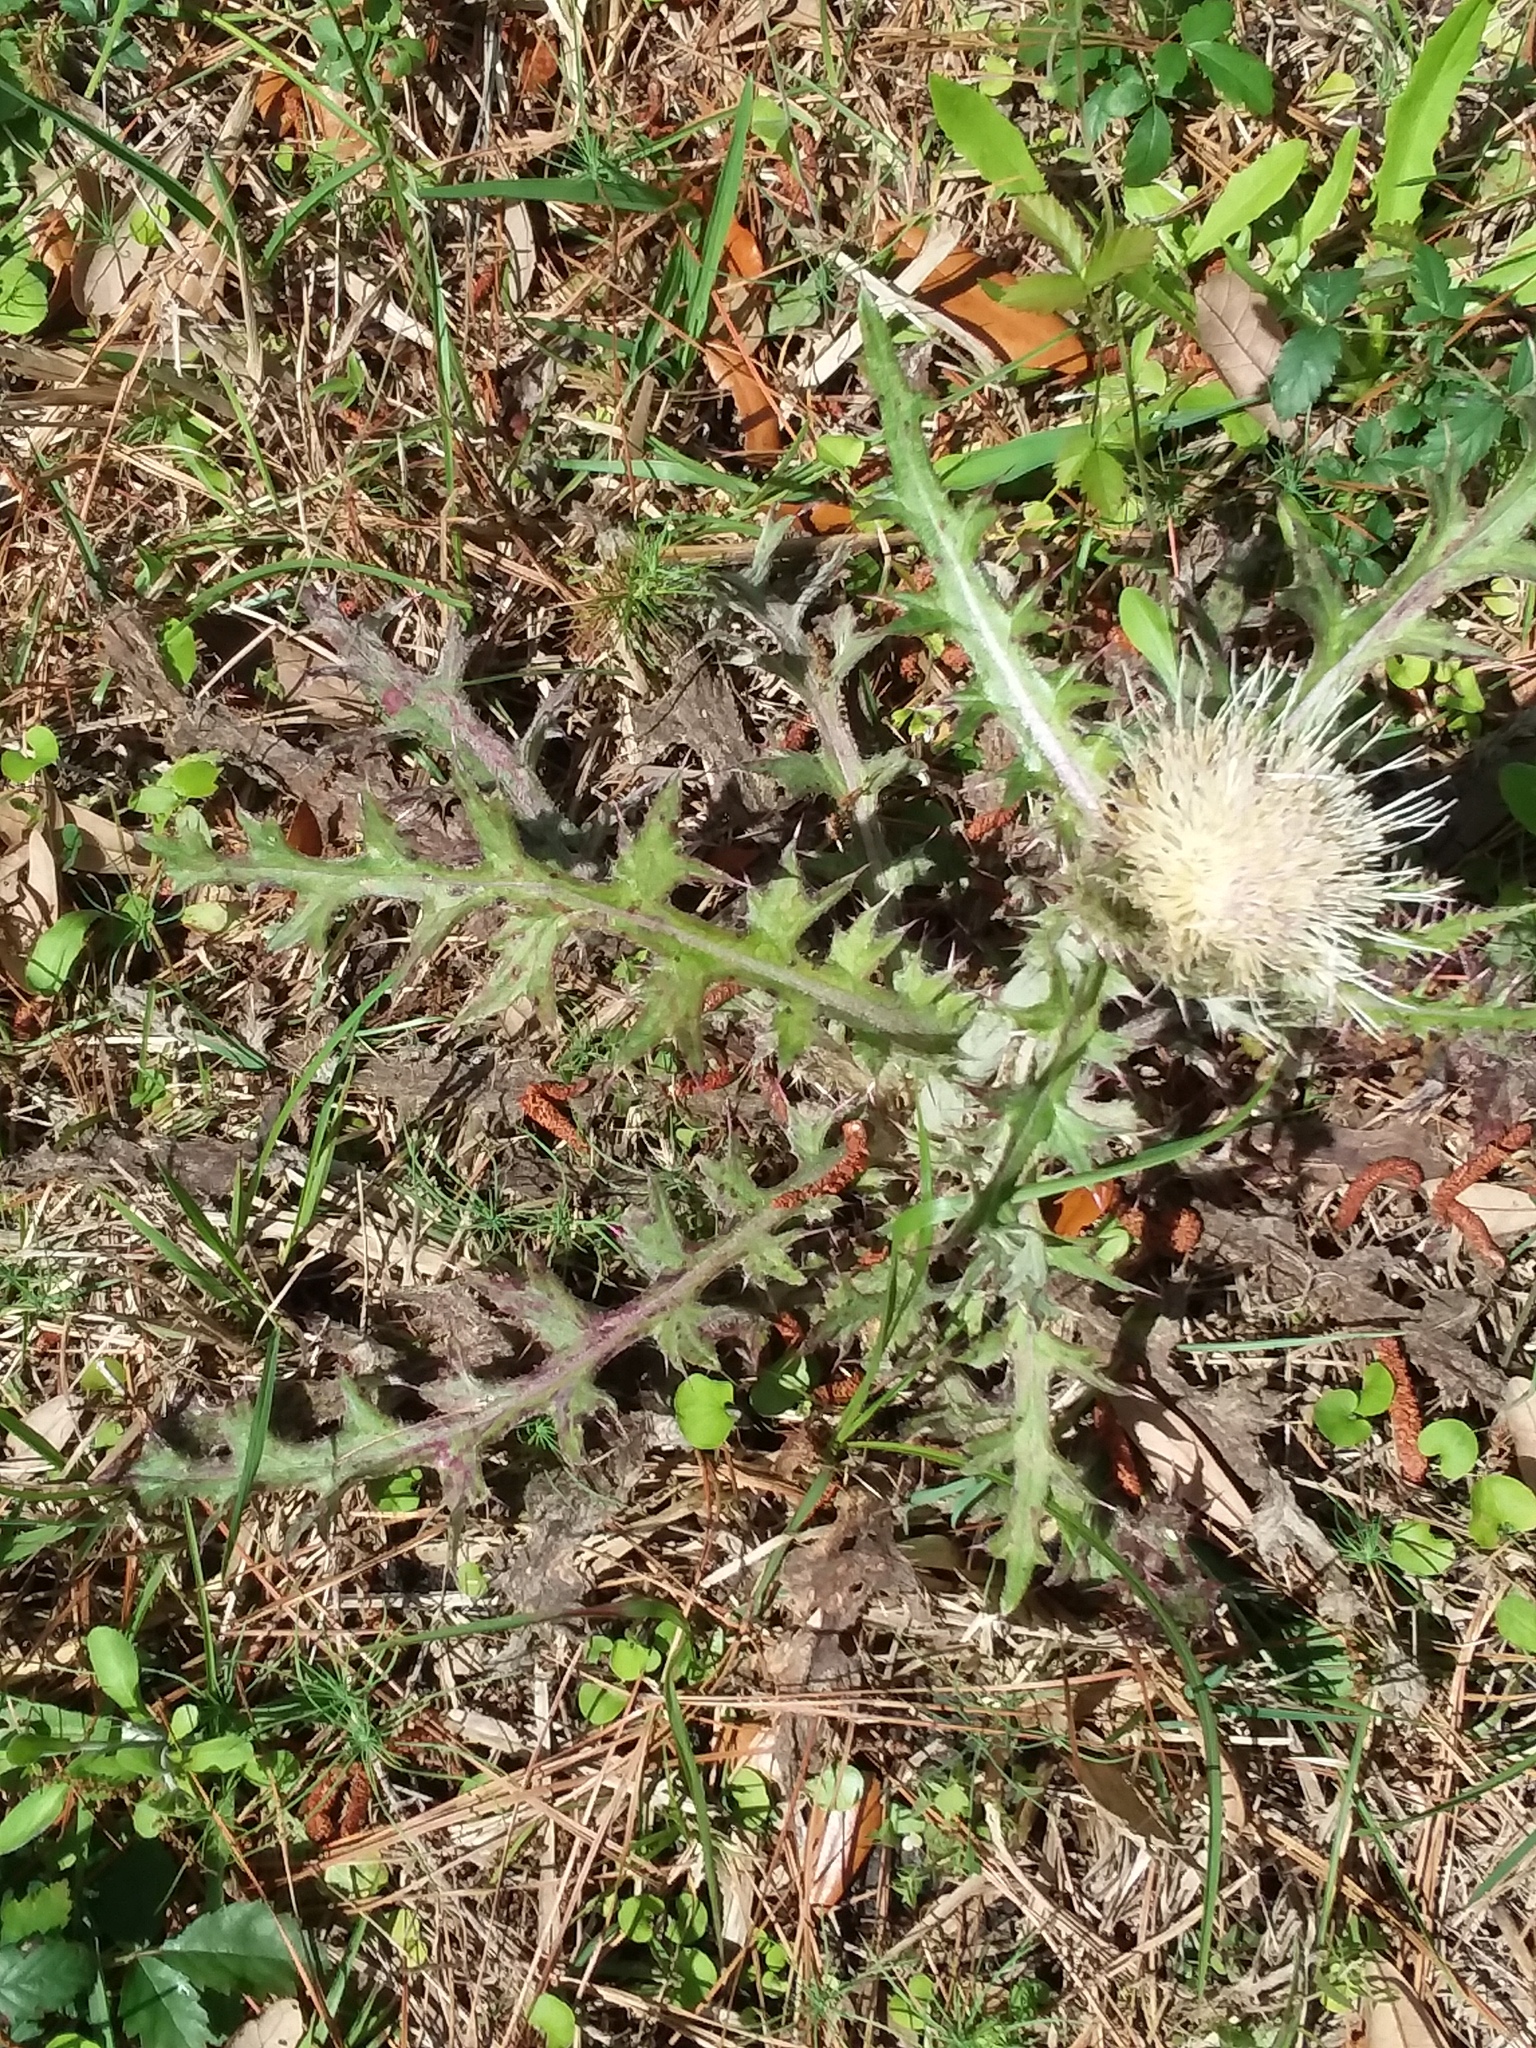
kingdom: Plantae
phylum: Tracheophyta
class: Magnoliopsida
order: Asterales
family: Asteraceae
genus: Cirsium
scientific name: Cirsium horridulum
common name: Bristly thistle
